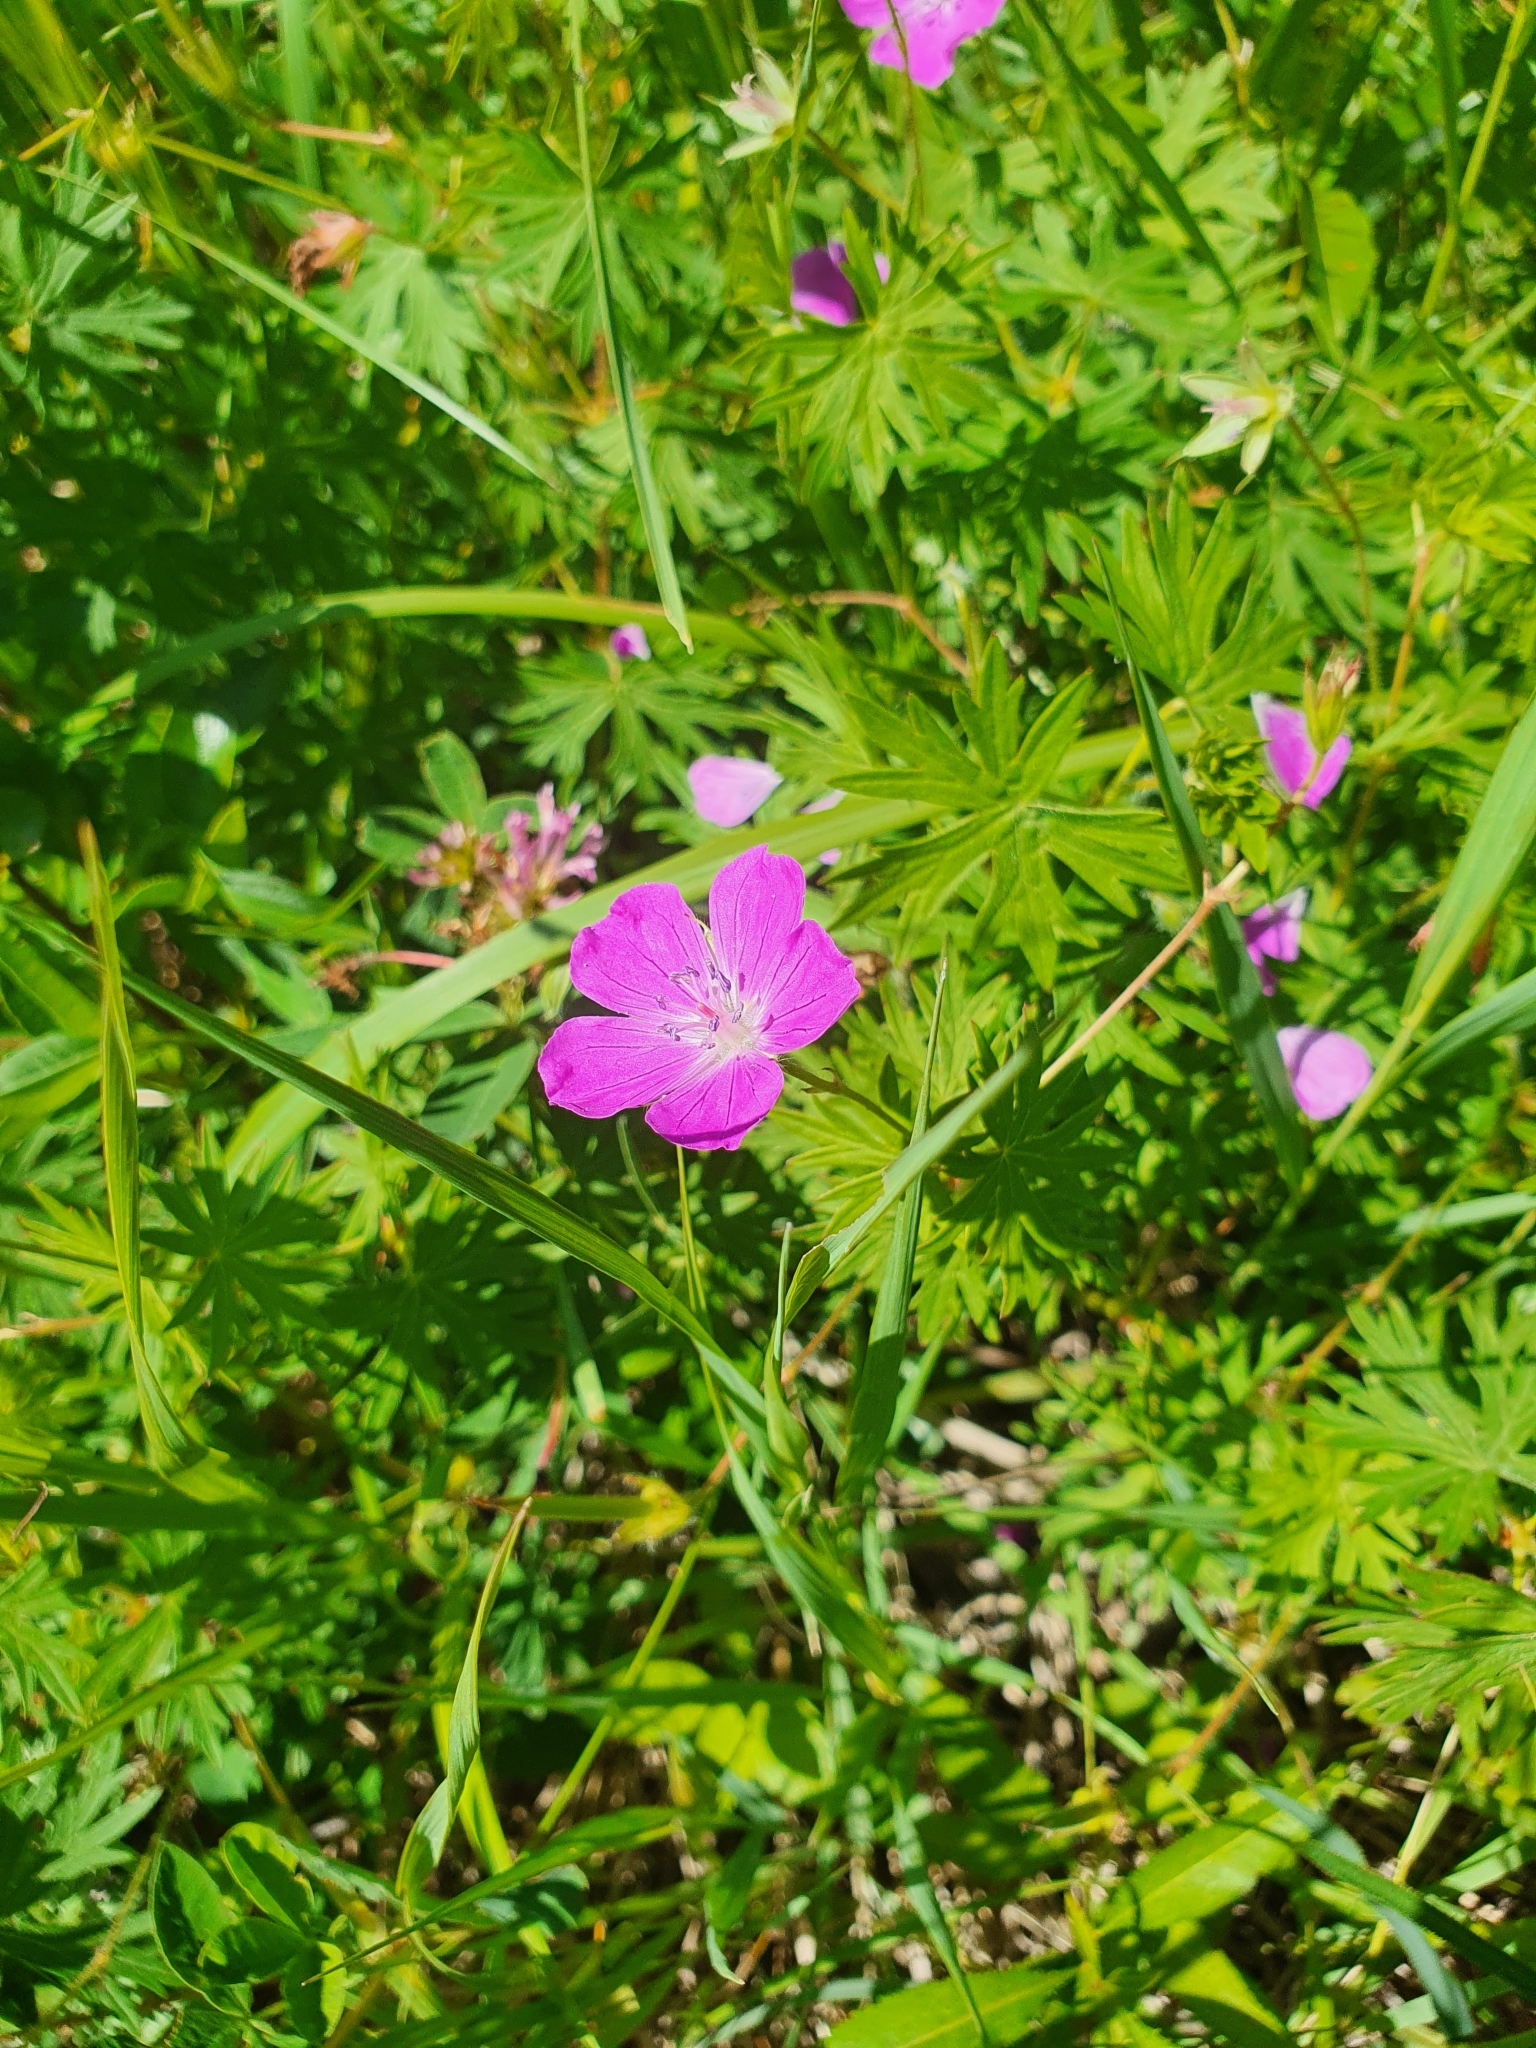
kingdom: Plantae
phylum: Tracheophyta
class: Magnoliopsida
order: Geraniales
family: Geraniaceae
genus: Geranium
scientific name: Geranium sanguineum
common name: Bloody crane's-bill
